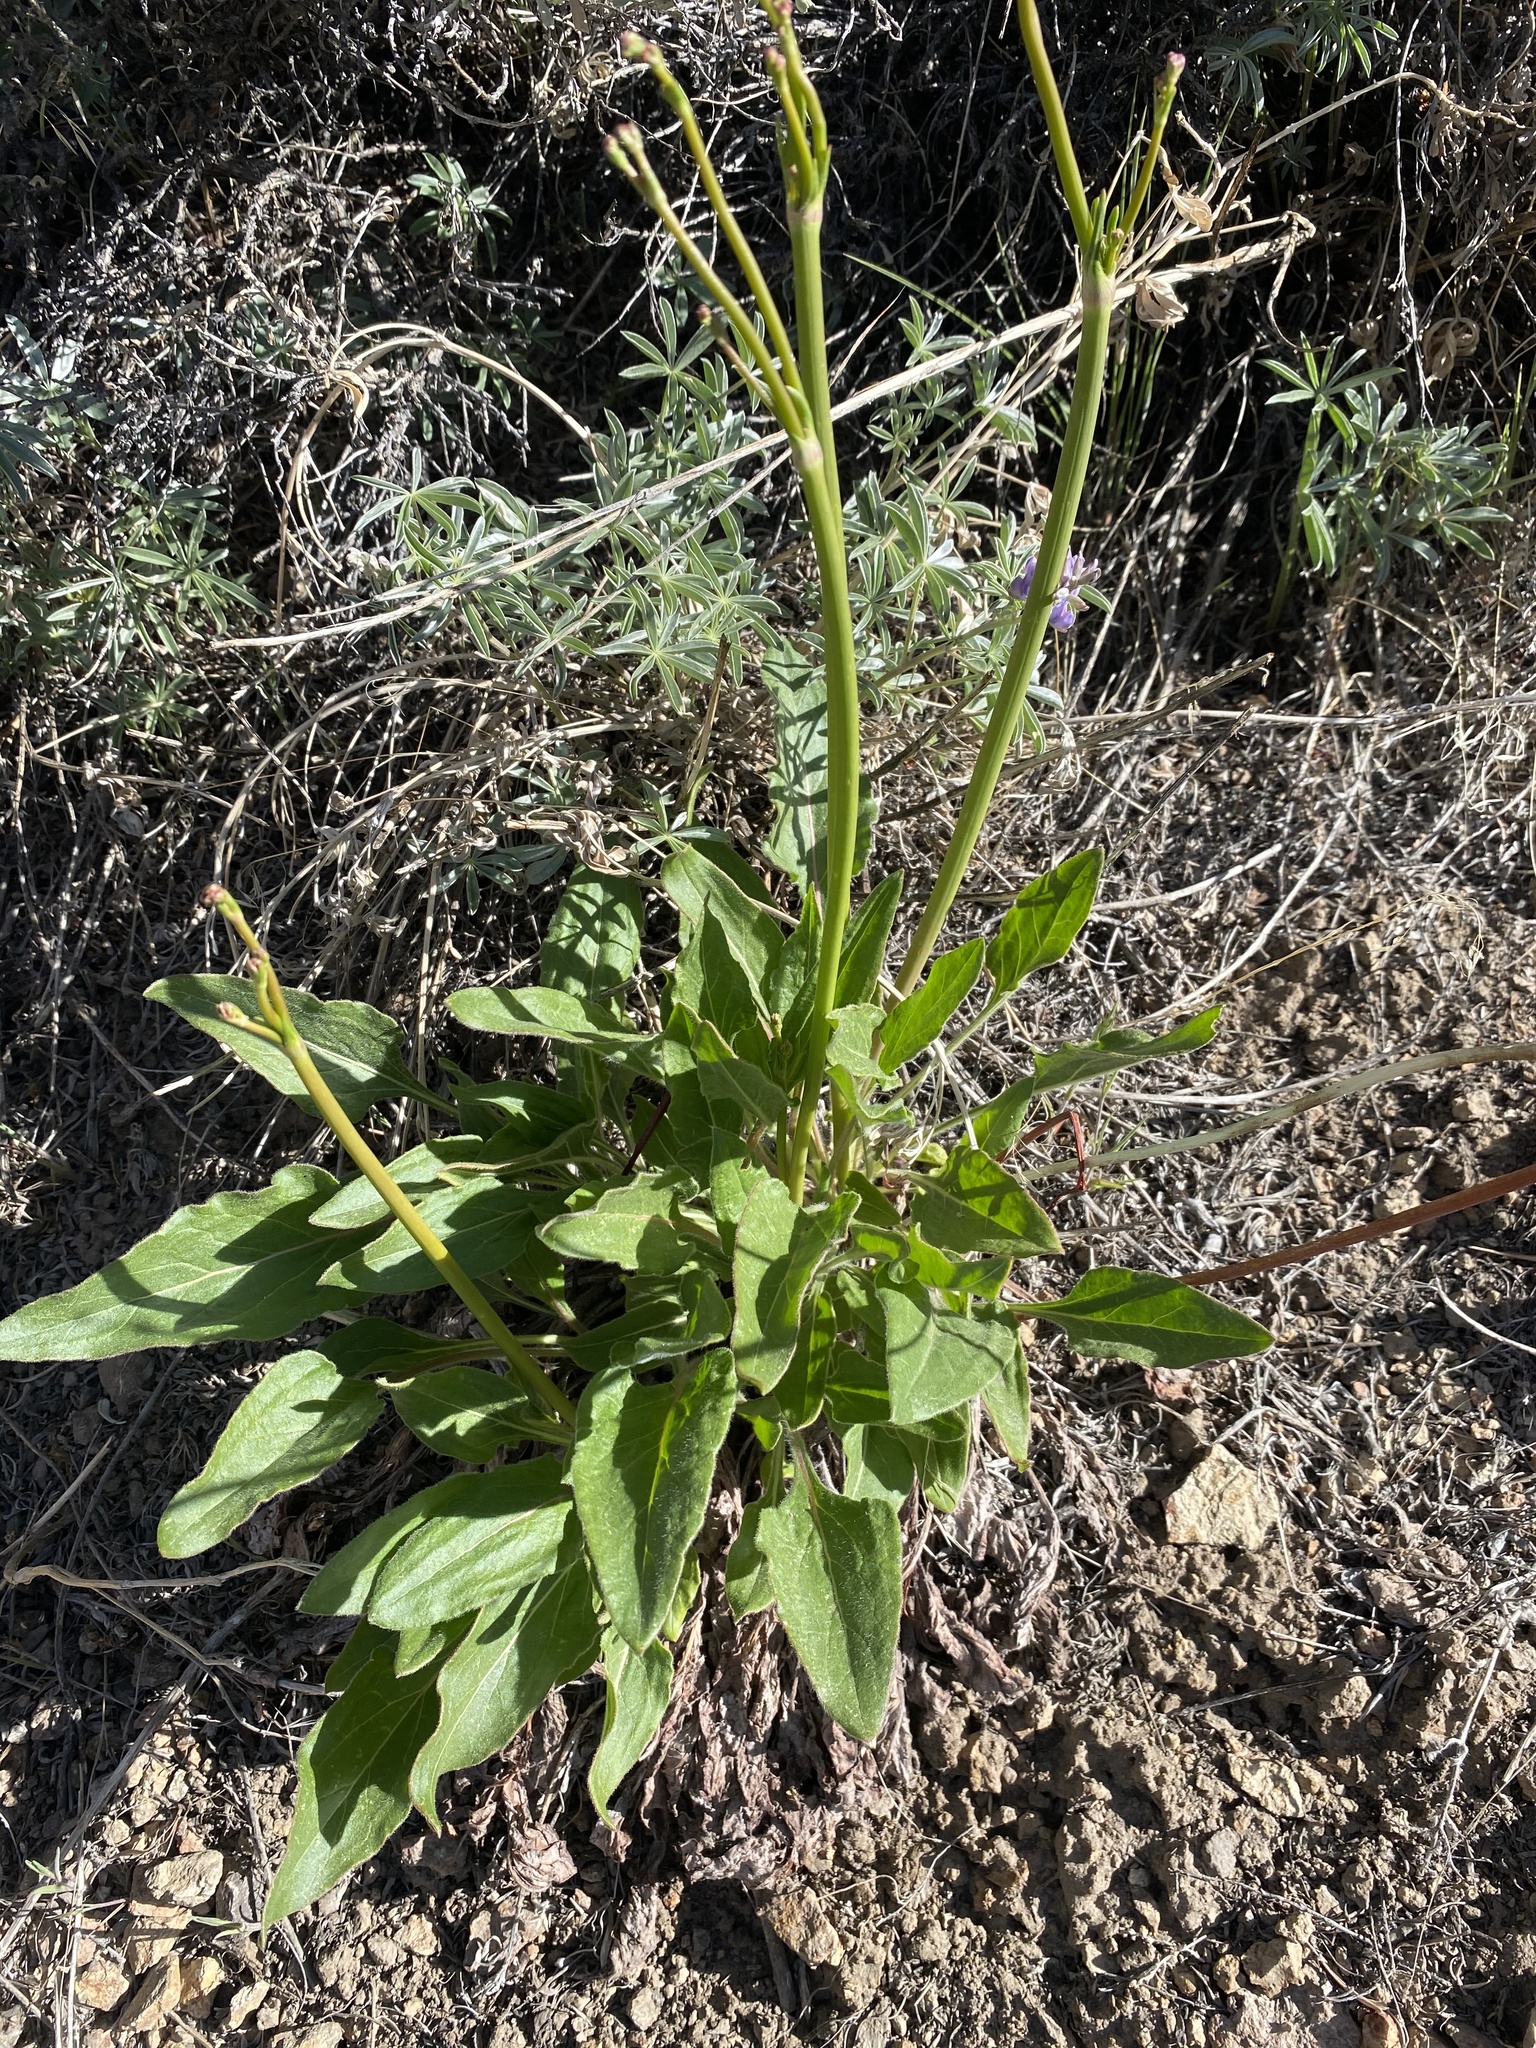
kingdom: Plantae
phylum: Tracheophyta
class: Magnoliopsida
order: Caryophyllales
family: Polygonaceae
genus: Eriogonum
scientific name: Eriogonum elatum
